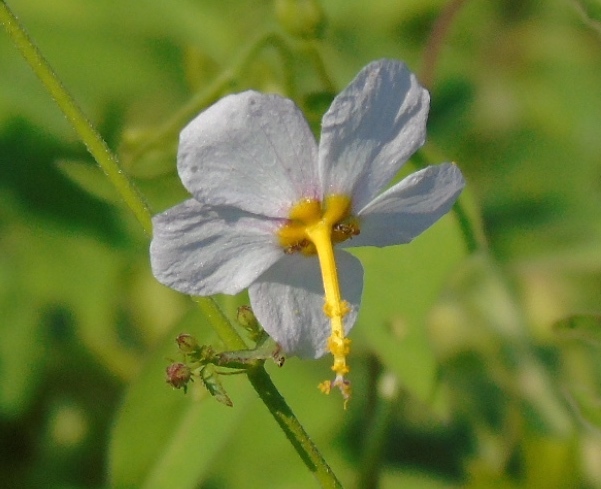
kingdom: Plantae
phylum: Tracheophyta
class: Magnoliopsida
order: Malvales
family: Malvaceae
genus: Kosteletzkya
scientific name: Kosteletzkya depressa
